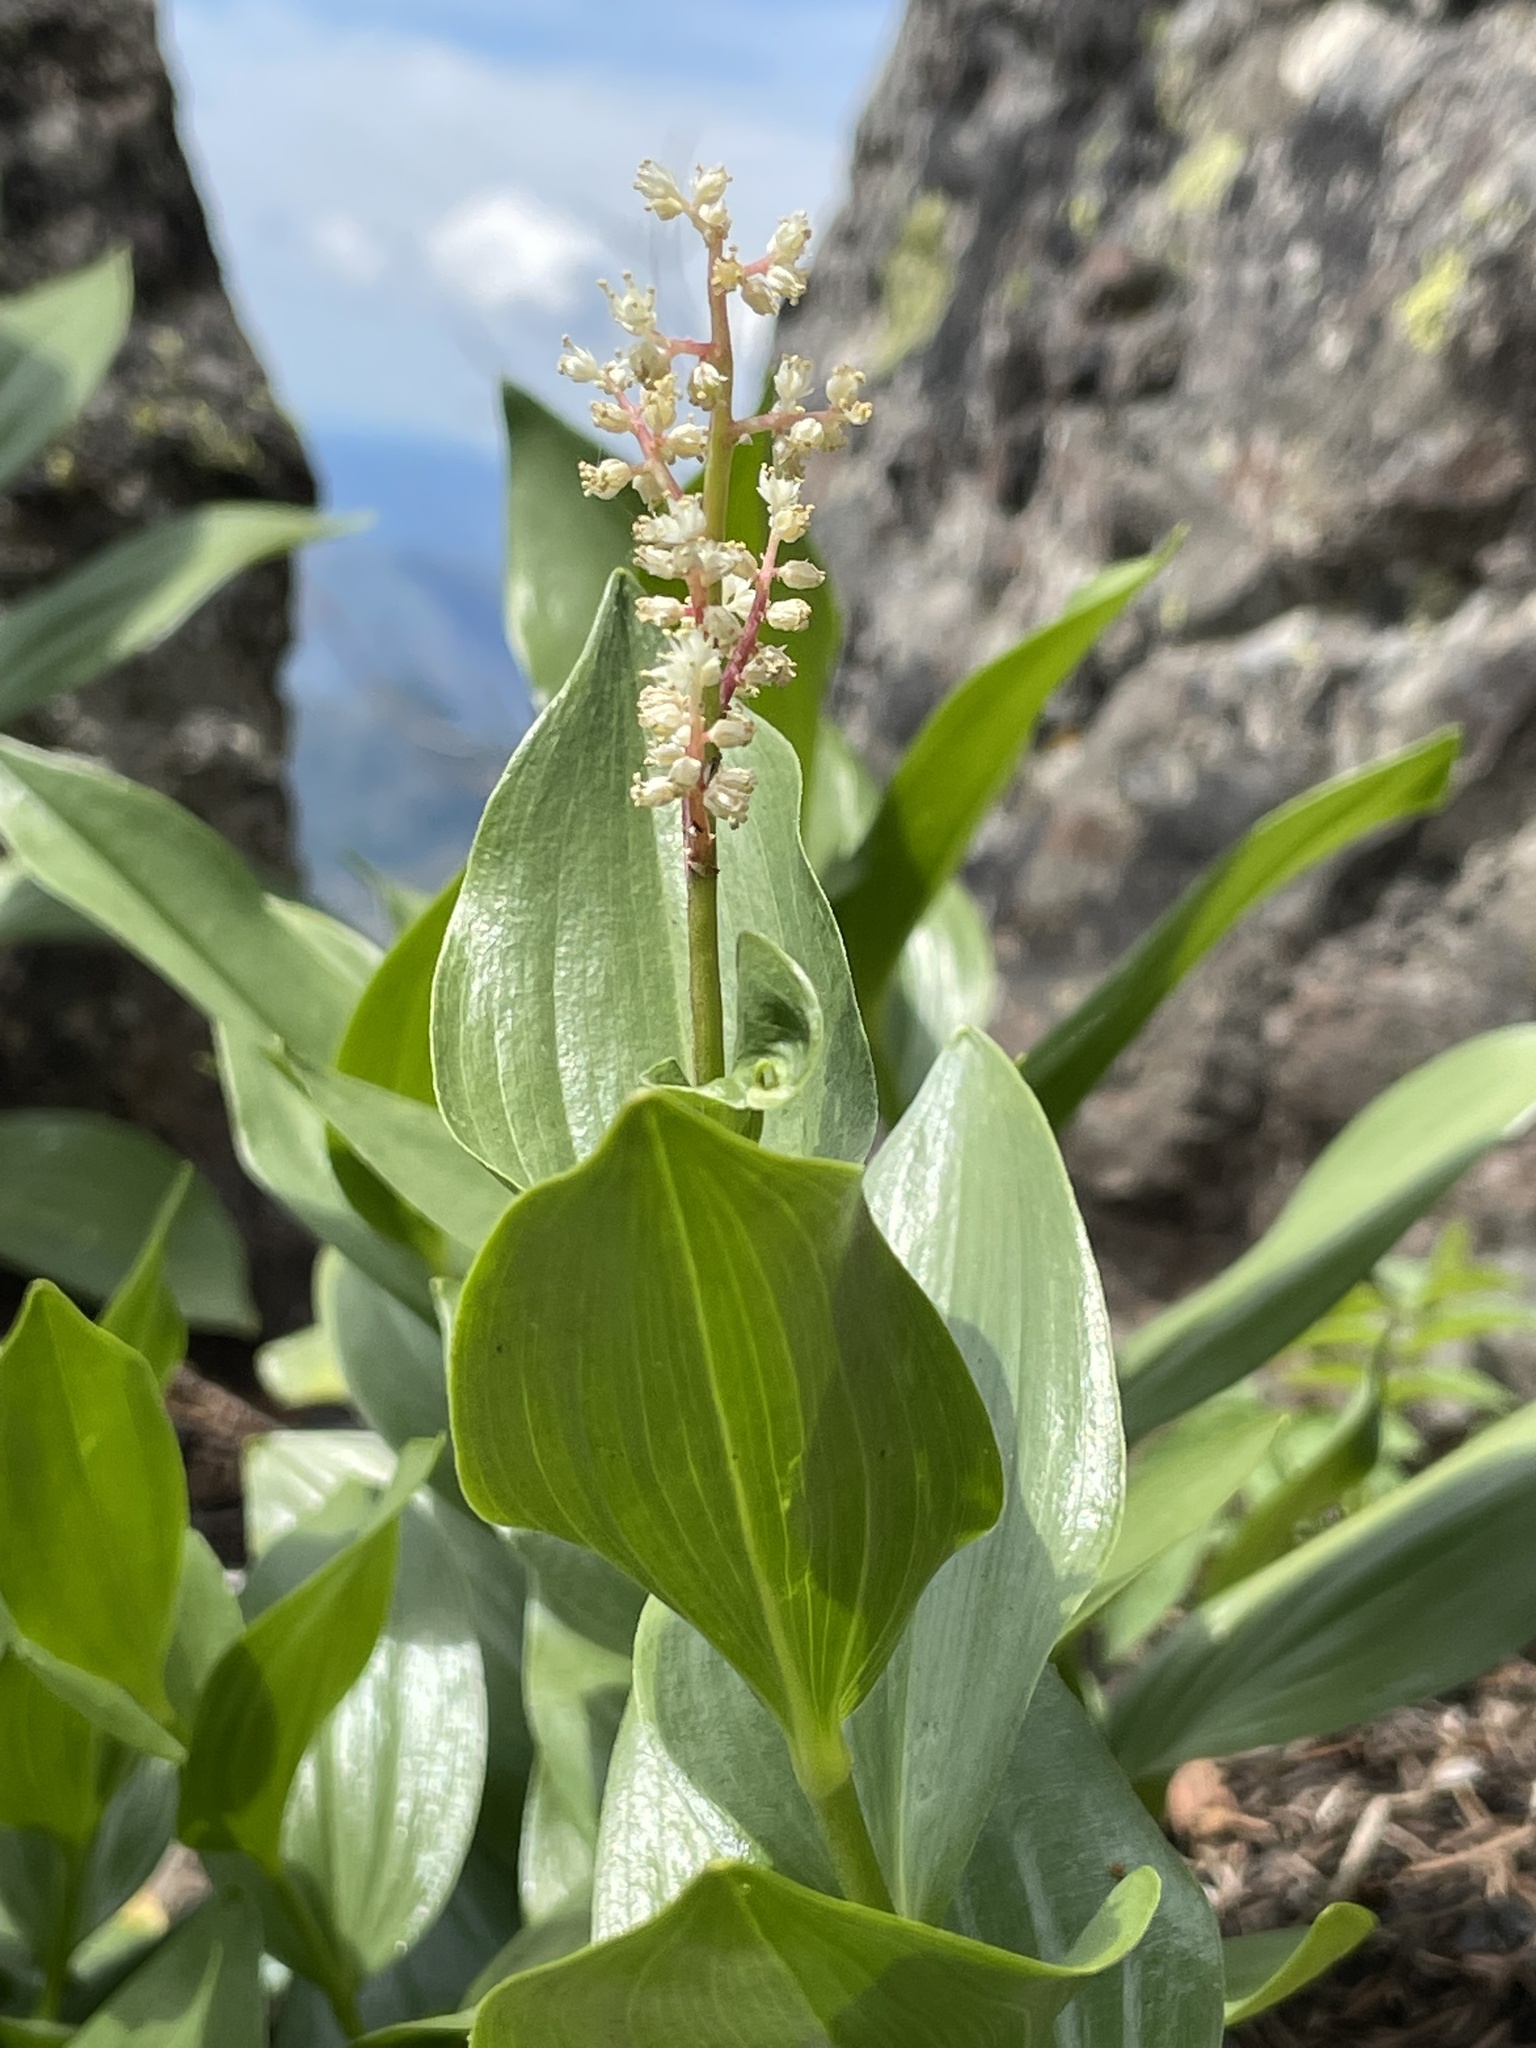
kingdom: Plantae
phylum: Tracheophyta
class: Liliopsida
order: Asparagales
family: Asparagaceae
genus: Maianthemum
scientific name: Maianthemum racemosum
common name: False spikenard
